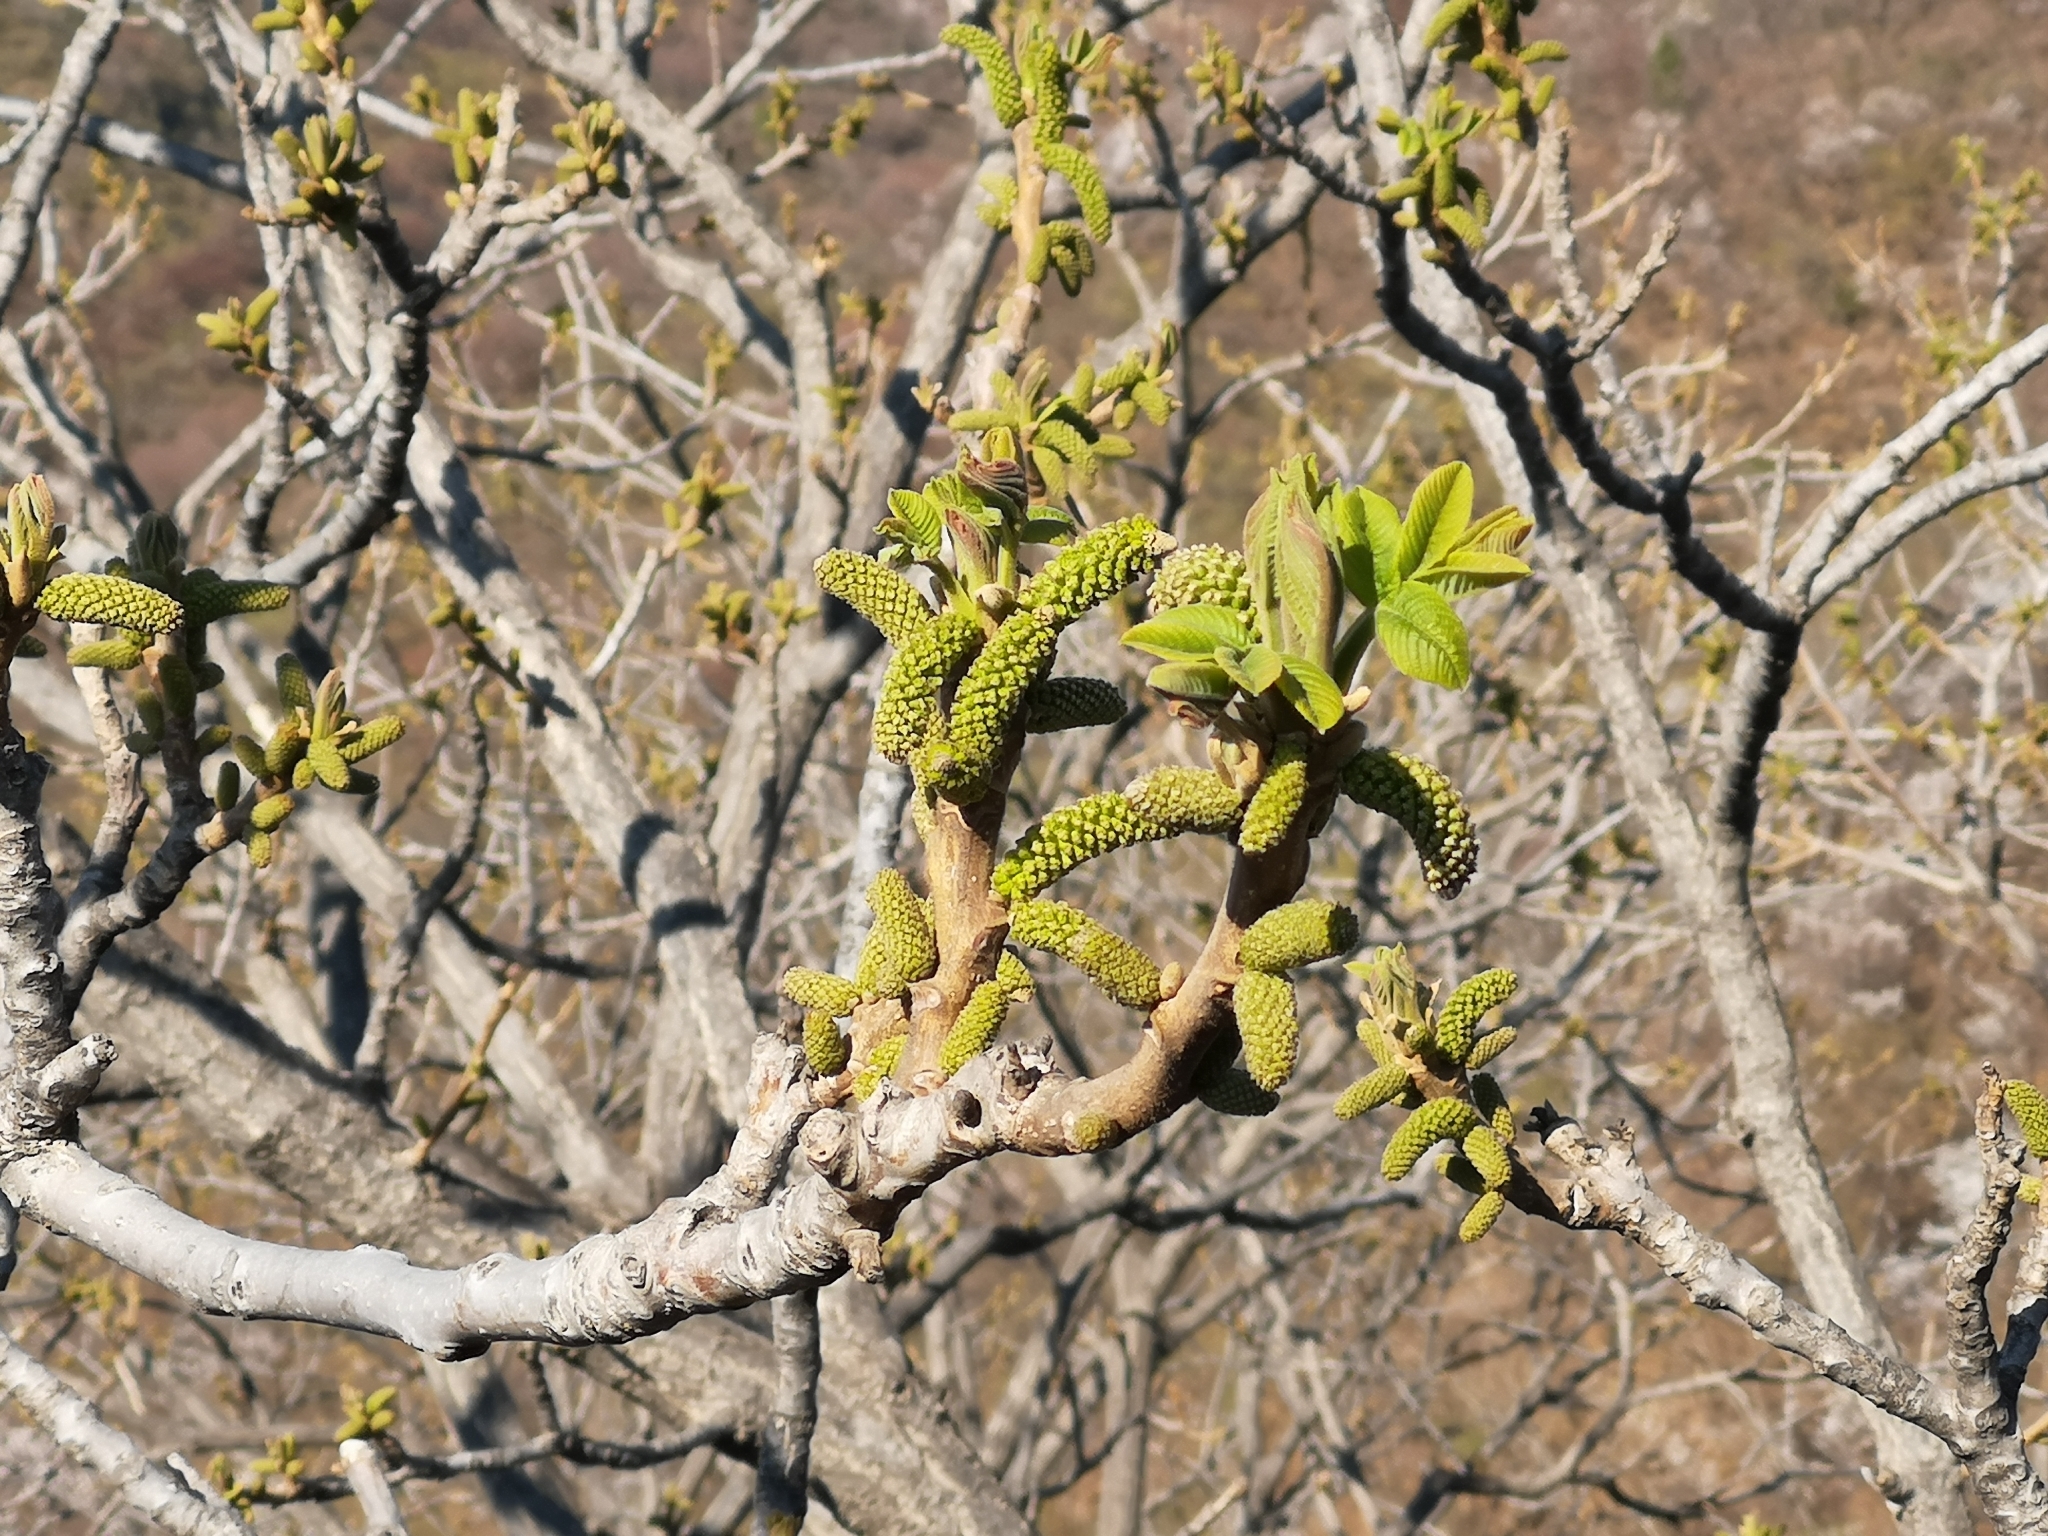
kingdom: Plantae
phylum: Tracheophyta
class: Magnoliopsida
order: Fagales
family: Juglandaceae
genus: Juglans
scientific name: Juglans regia
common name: Walnut
